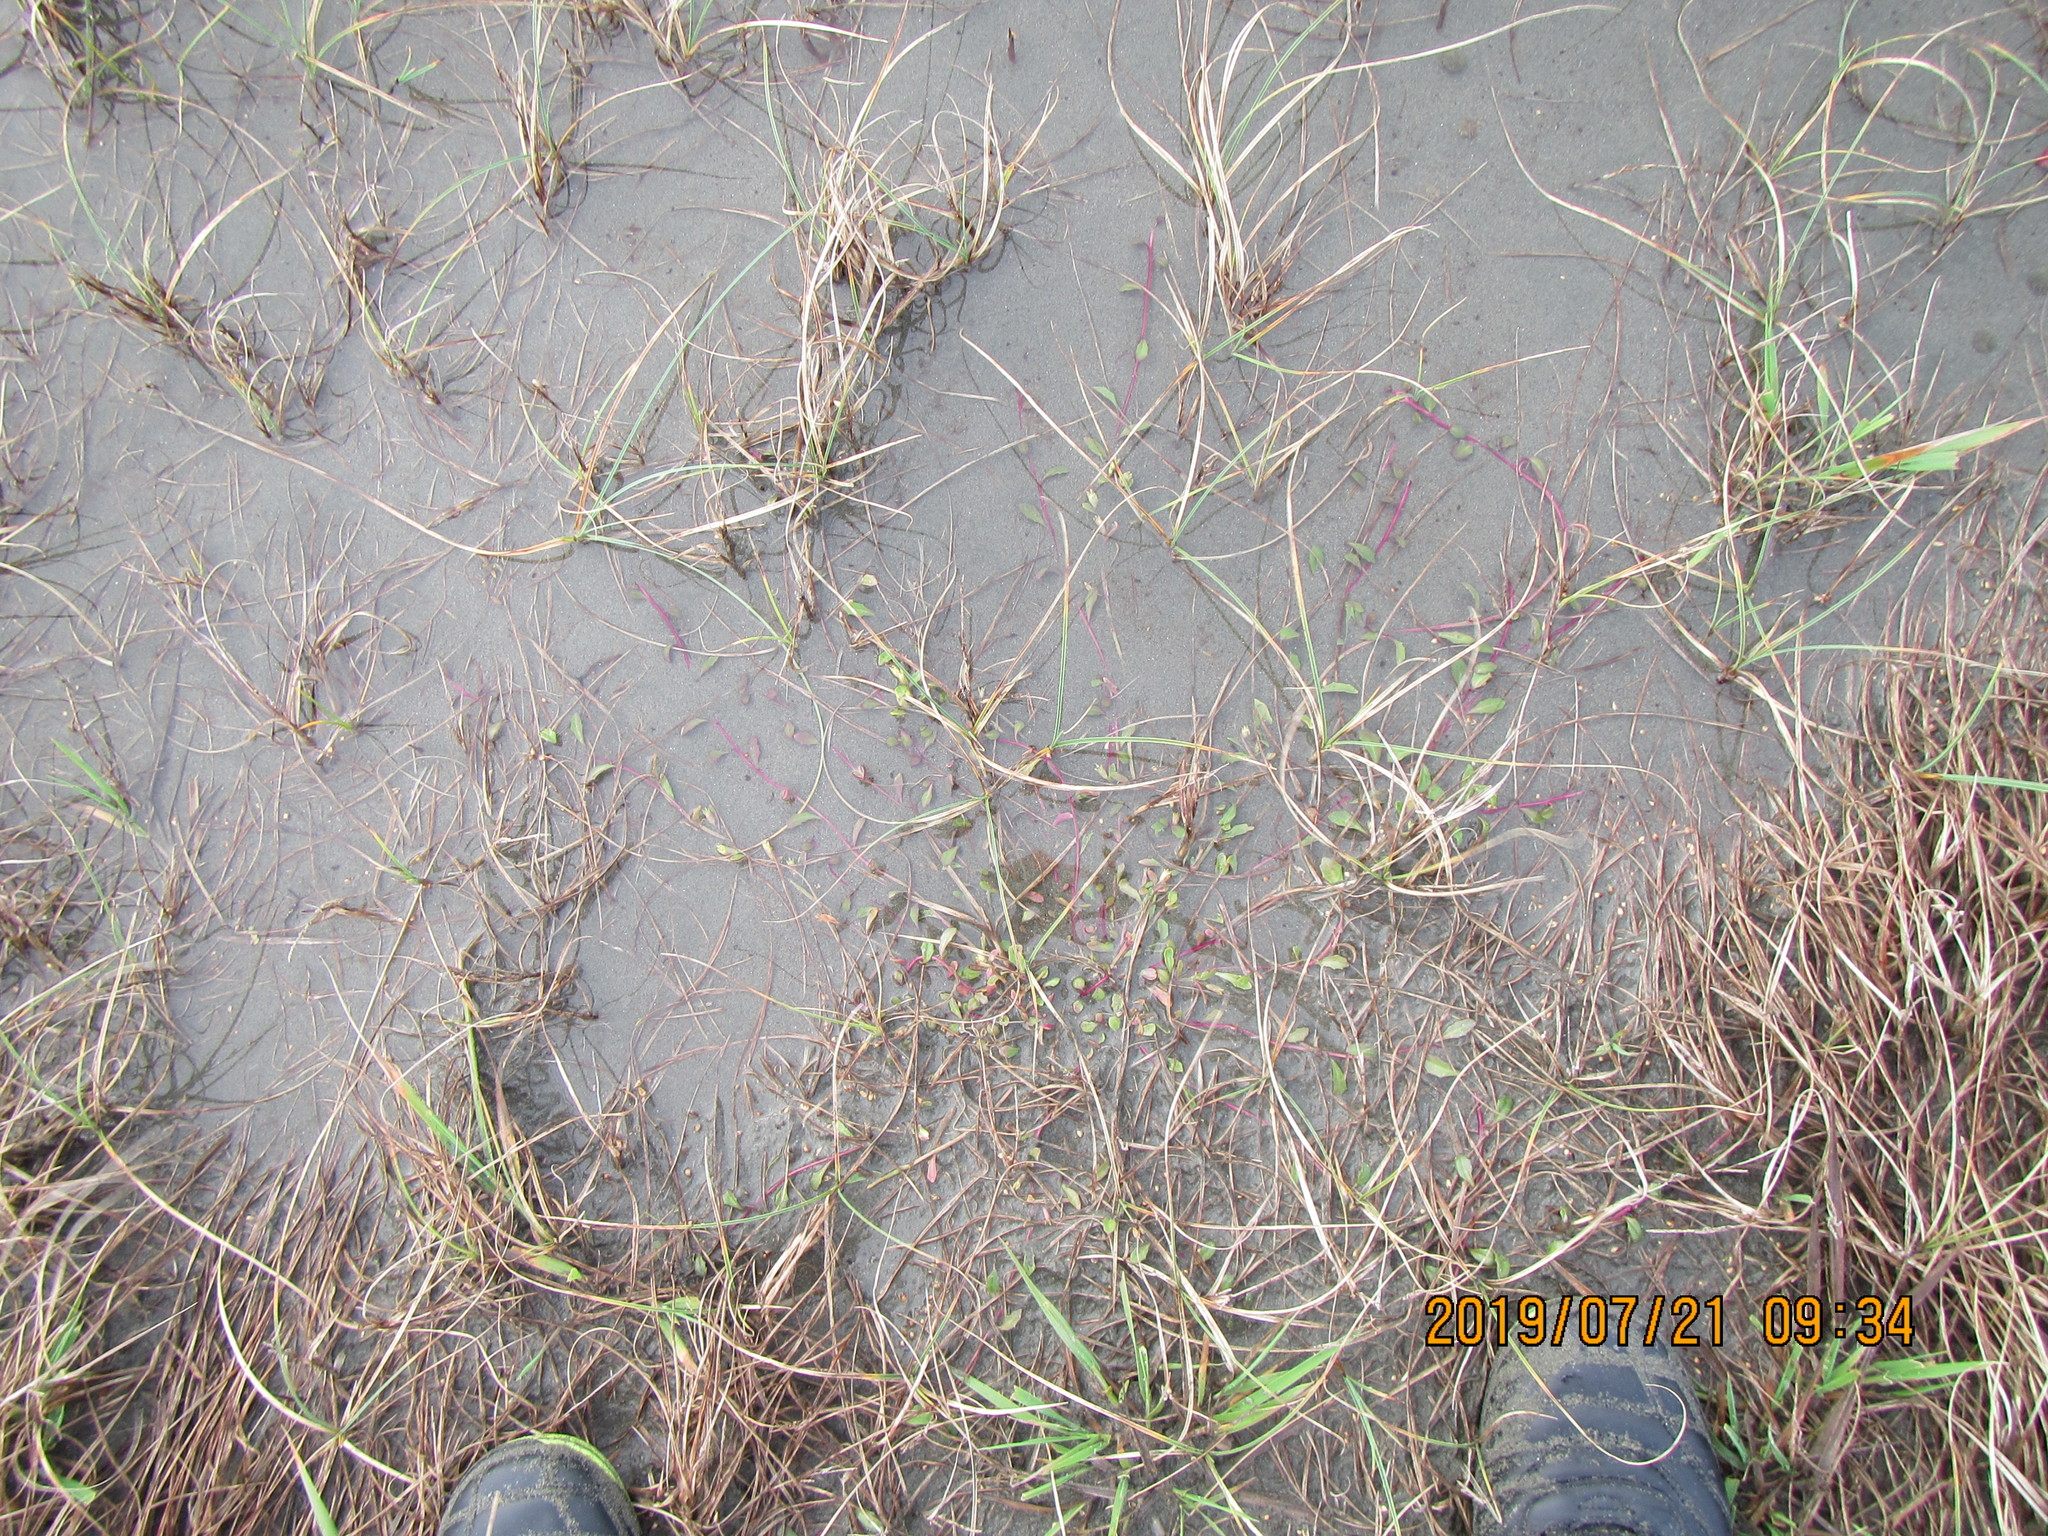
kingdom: Plantae
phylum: Tracheophyta
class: Magnoliopsida
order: Asterales
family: Campanulaceae
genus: Lobelia
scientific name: Lobelia anceps
